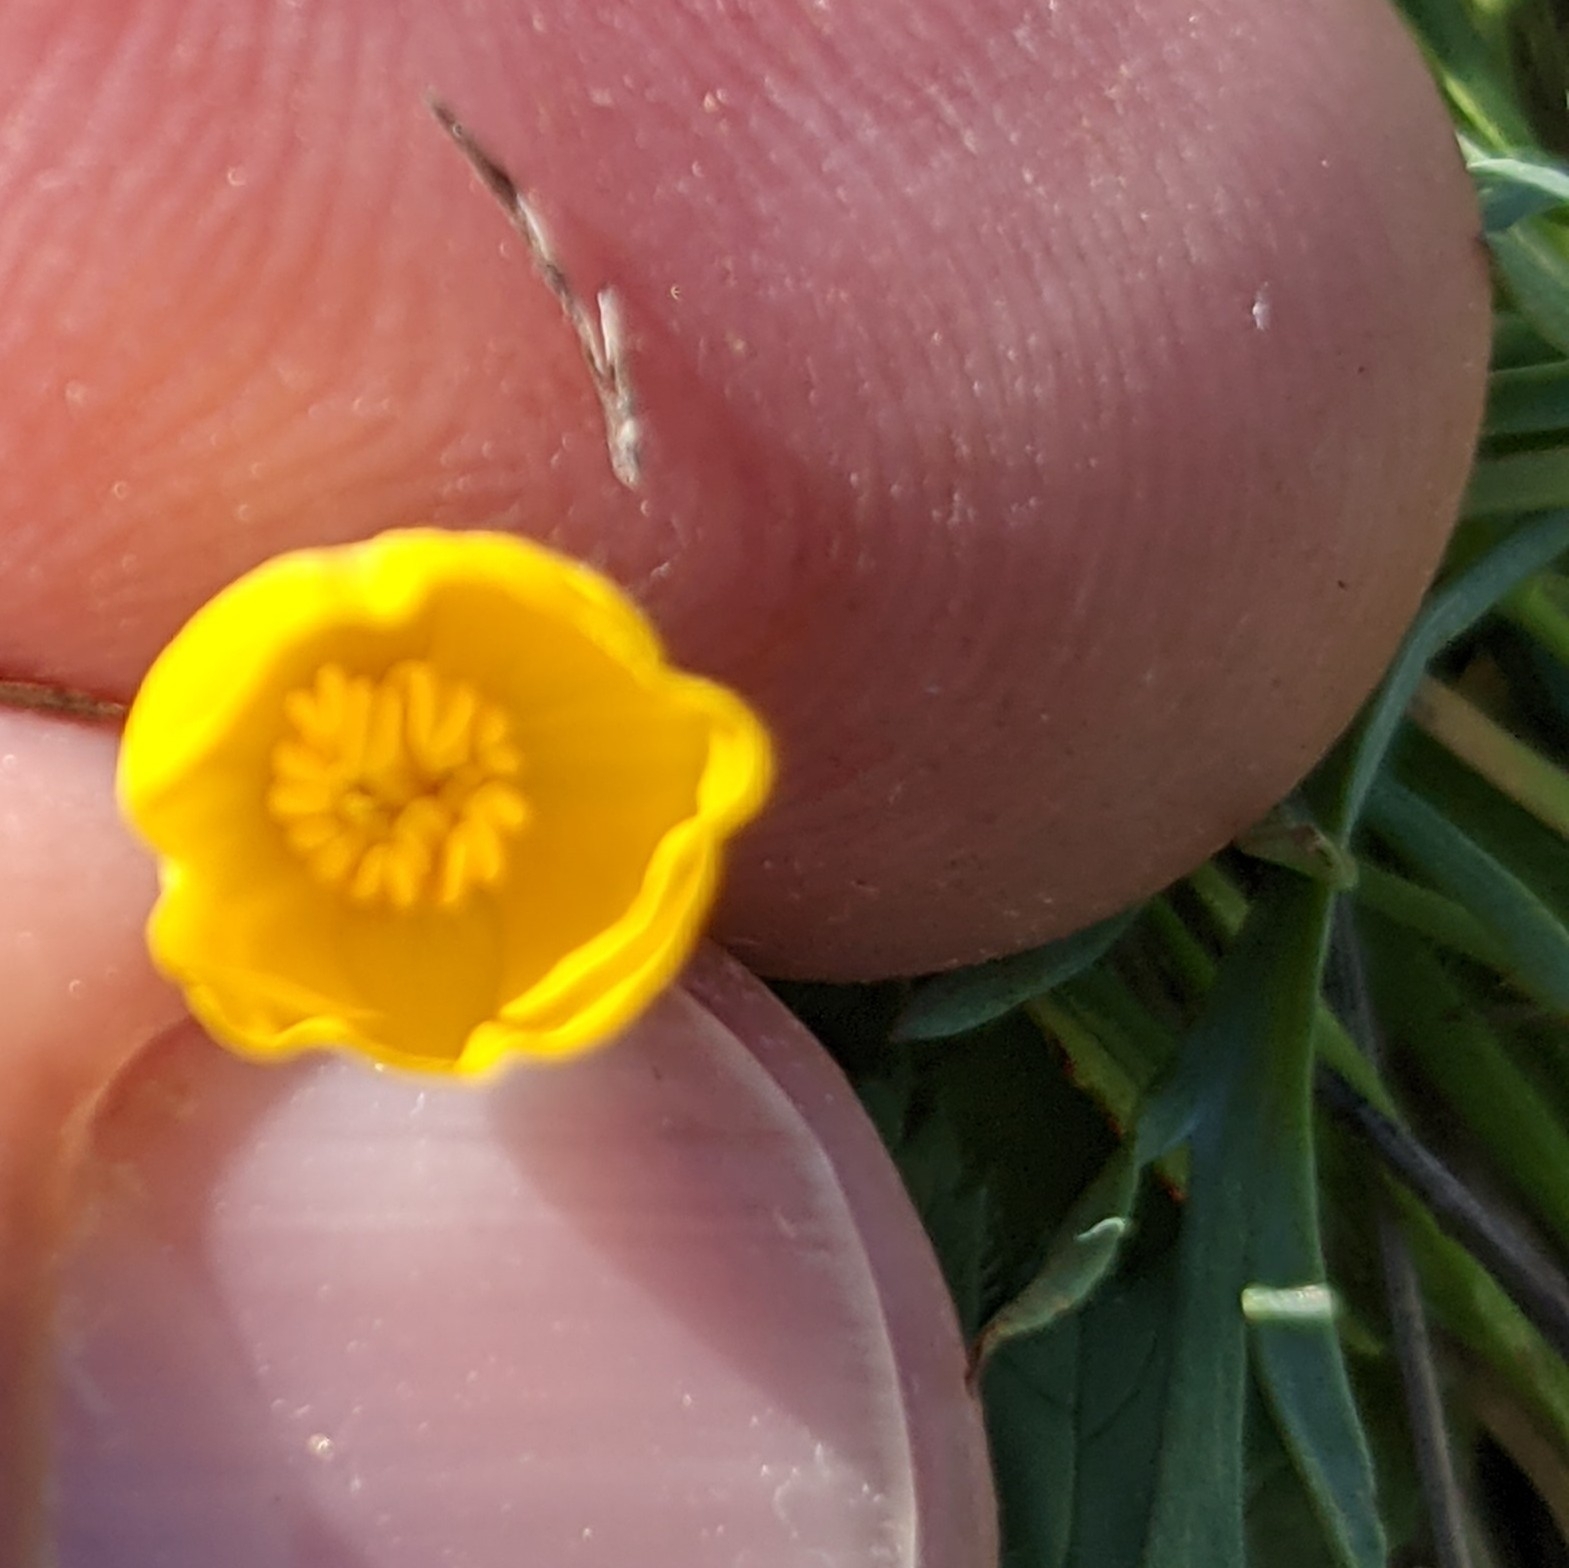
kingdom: Plantae
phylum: Tracheophyta
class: Magnoliopsida
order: Ranunculales
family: Papaveraceae
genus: Eschscholzia
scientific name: Eschscholzia lobbii
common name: Frying-pans
